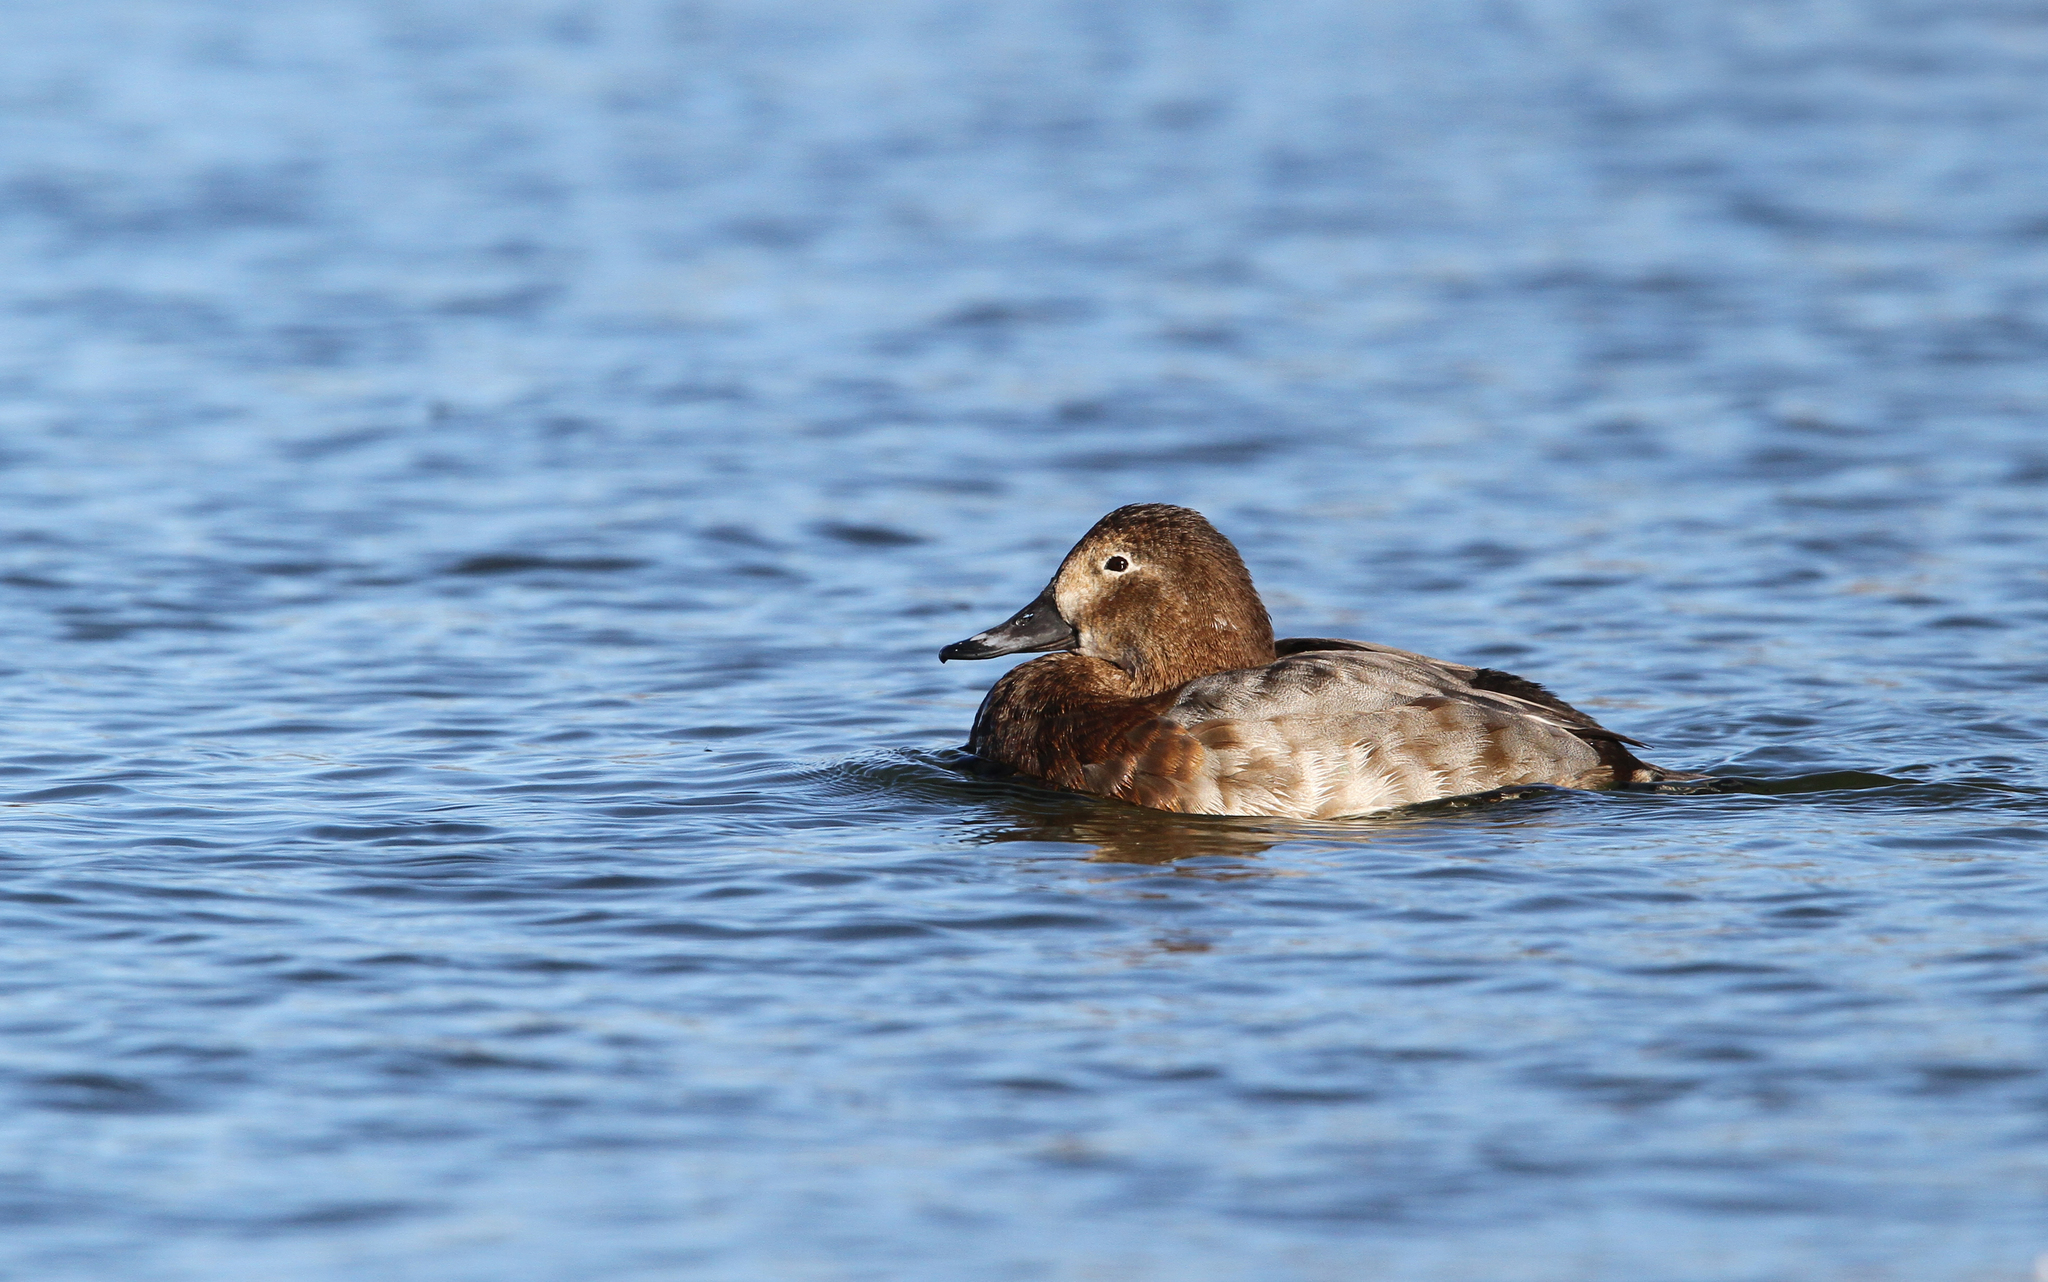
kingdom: Animalia
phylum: Chordata
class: Aves
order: Anseriformes
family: Anatidae
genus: Aythya
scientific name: Aythya ferina
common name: Common pochard
